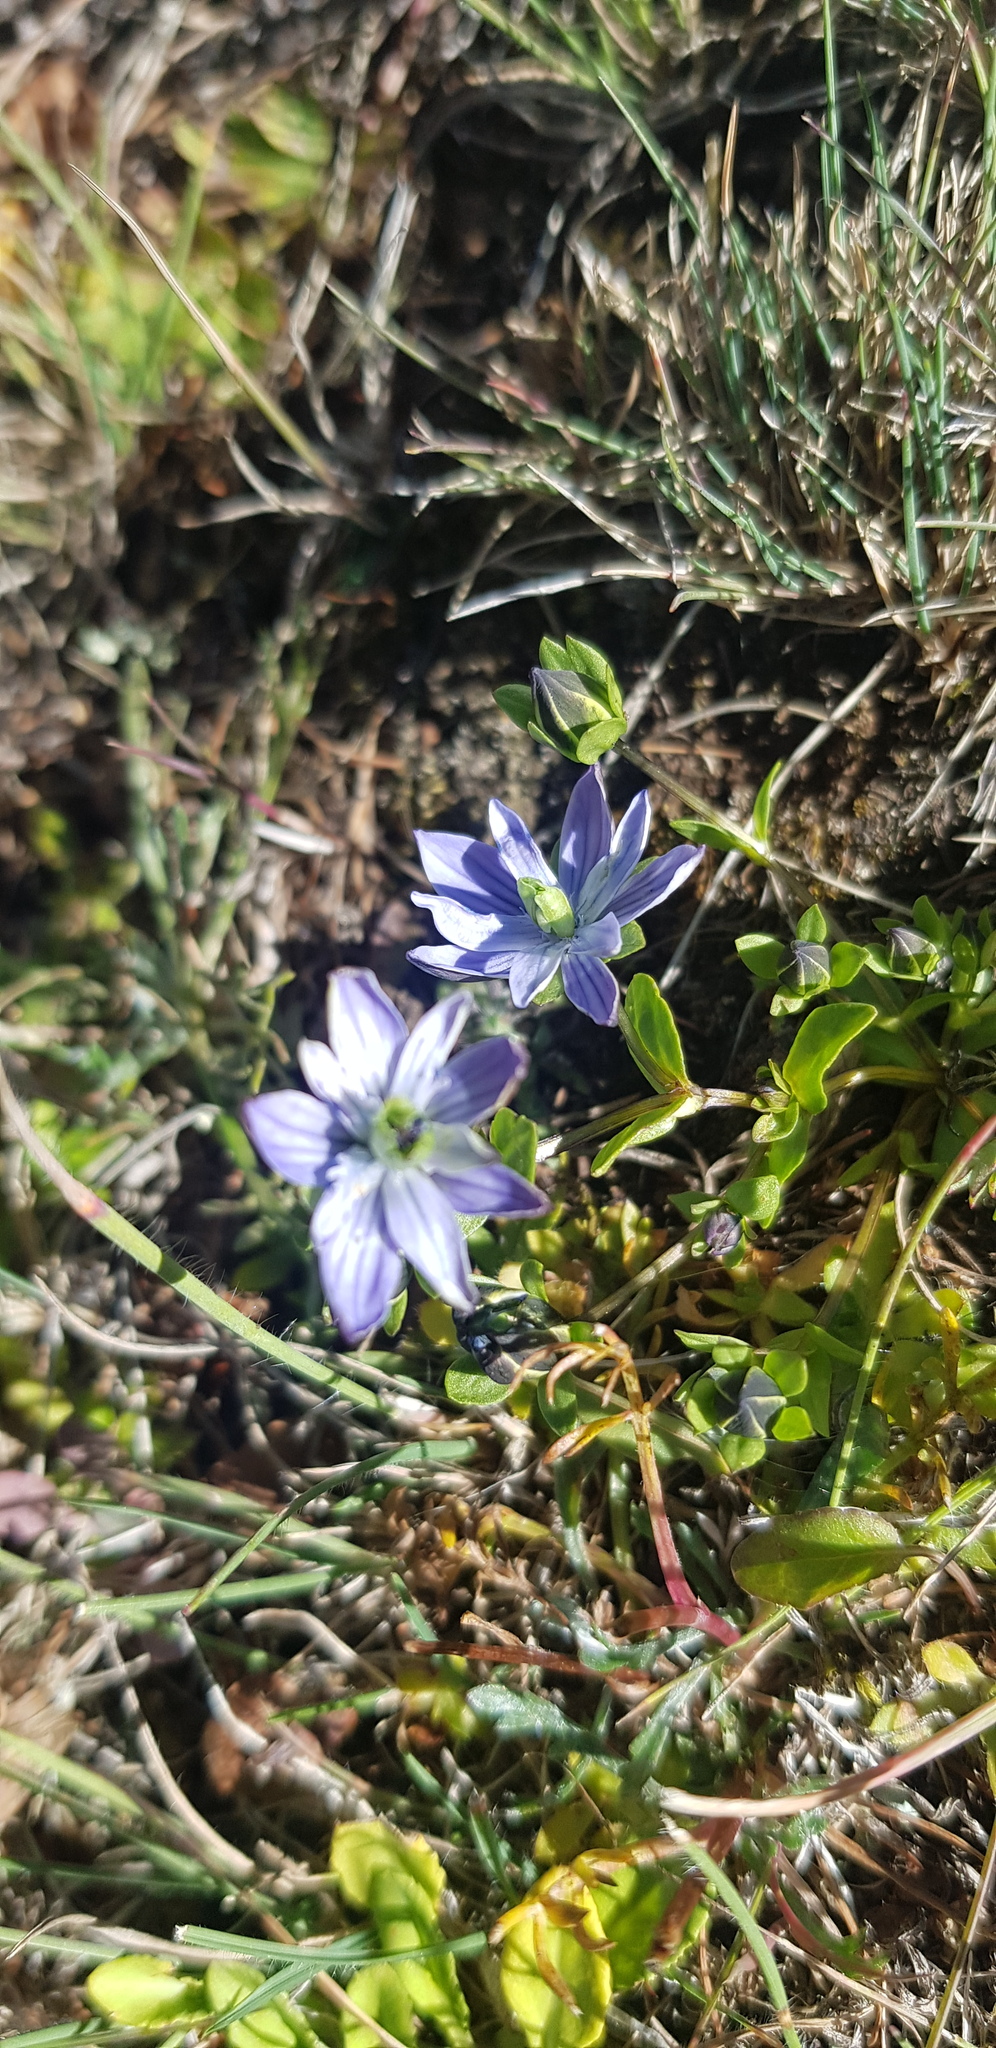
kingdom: Plantae
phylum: Tracheophyta
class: Magnoliopsida
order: Gentianales
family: Gentianaceae
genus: Lomatogonium
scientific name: Lomatogonium carinthiacum
